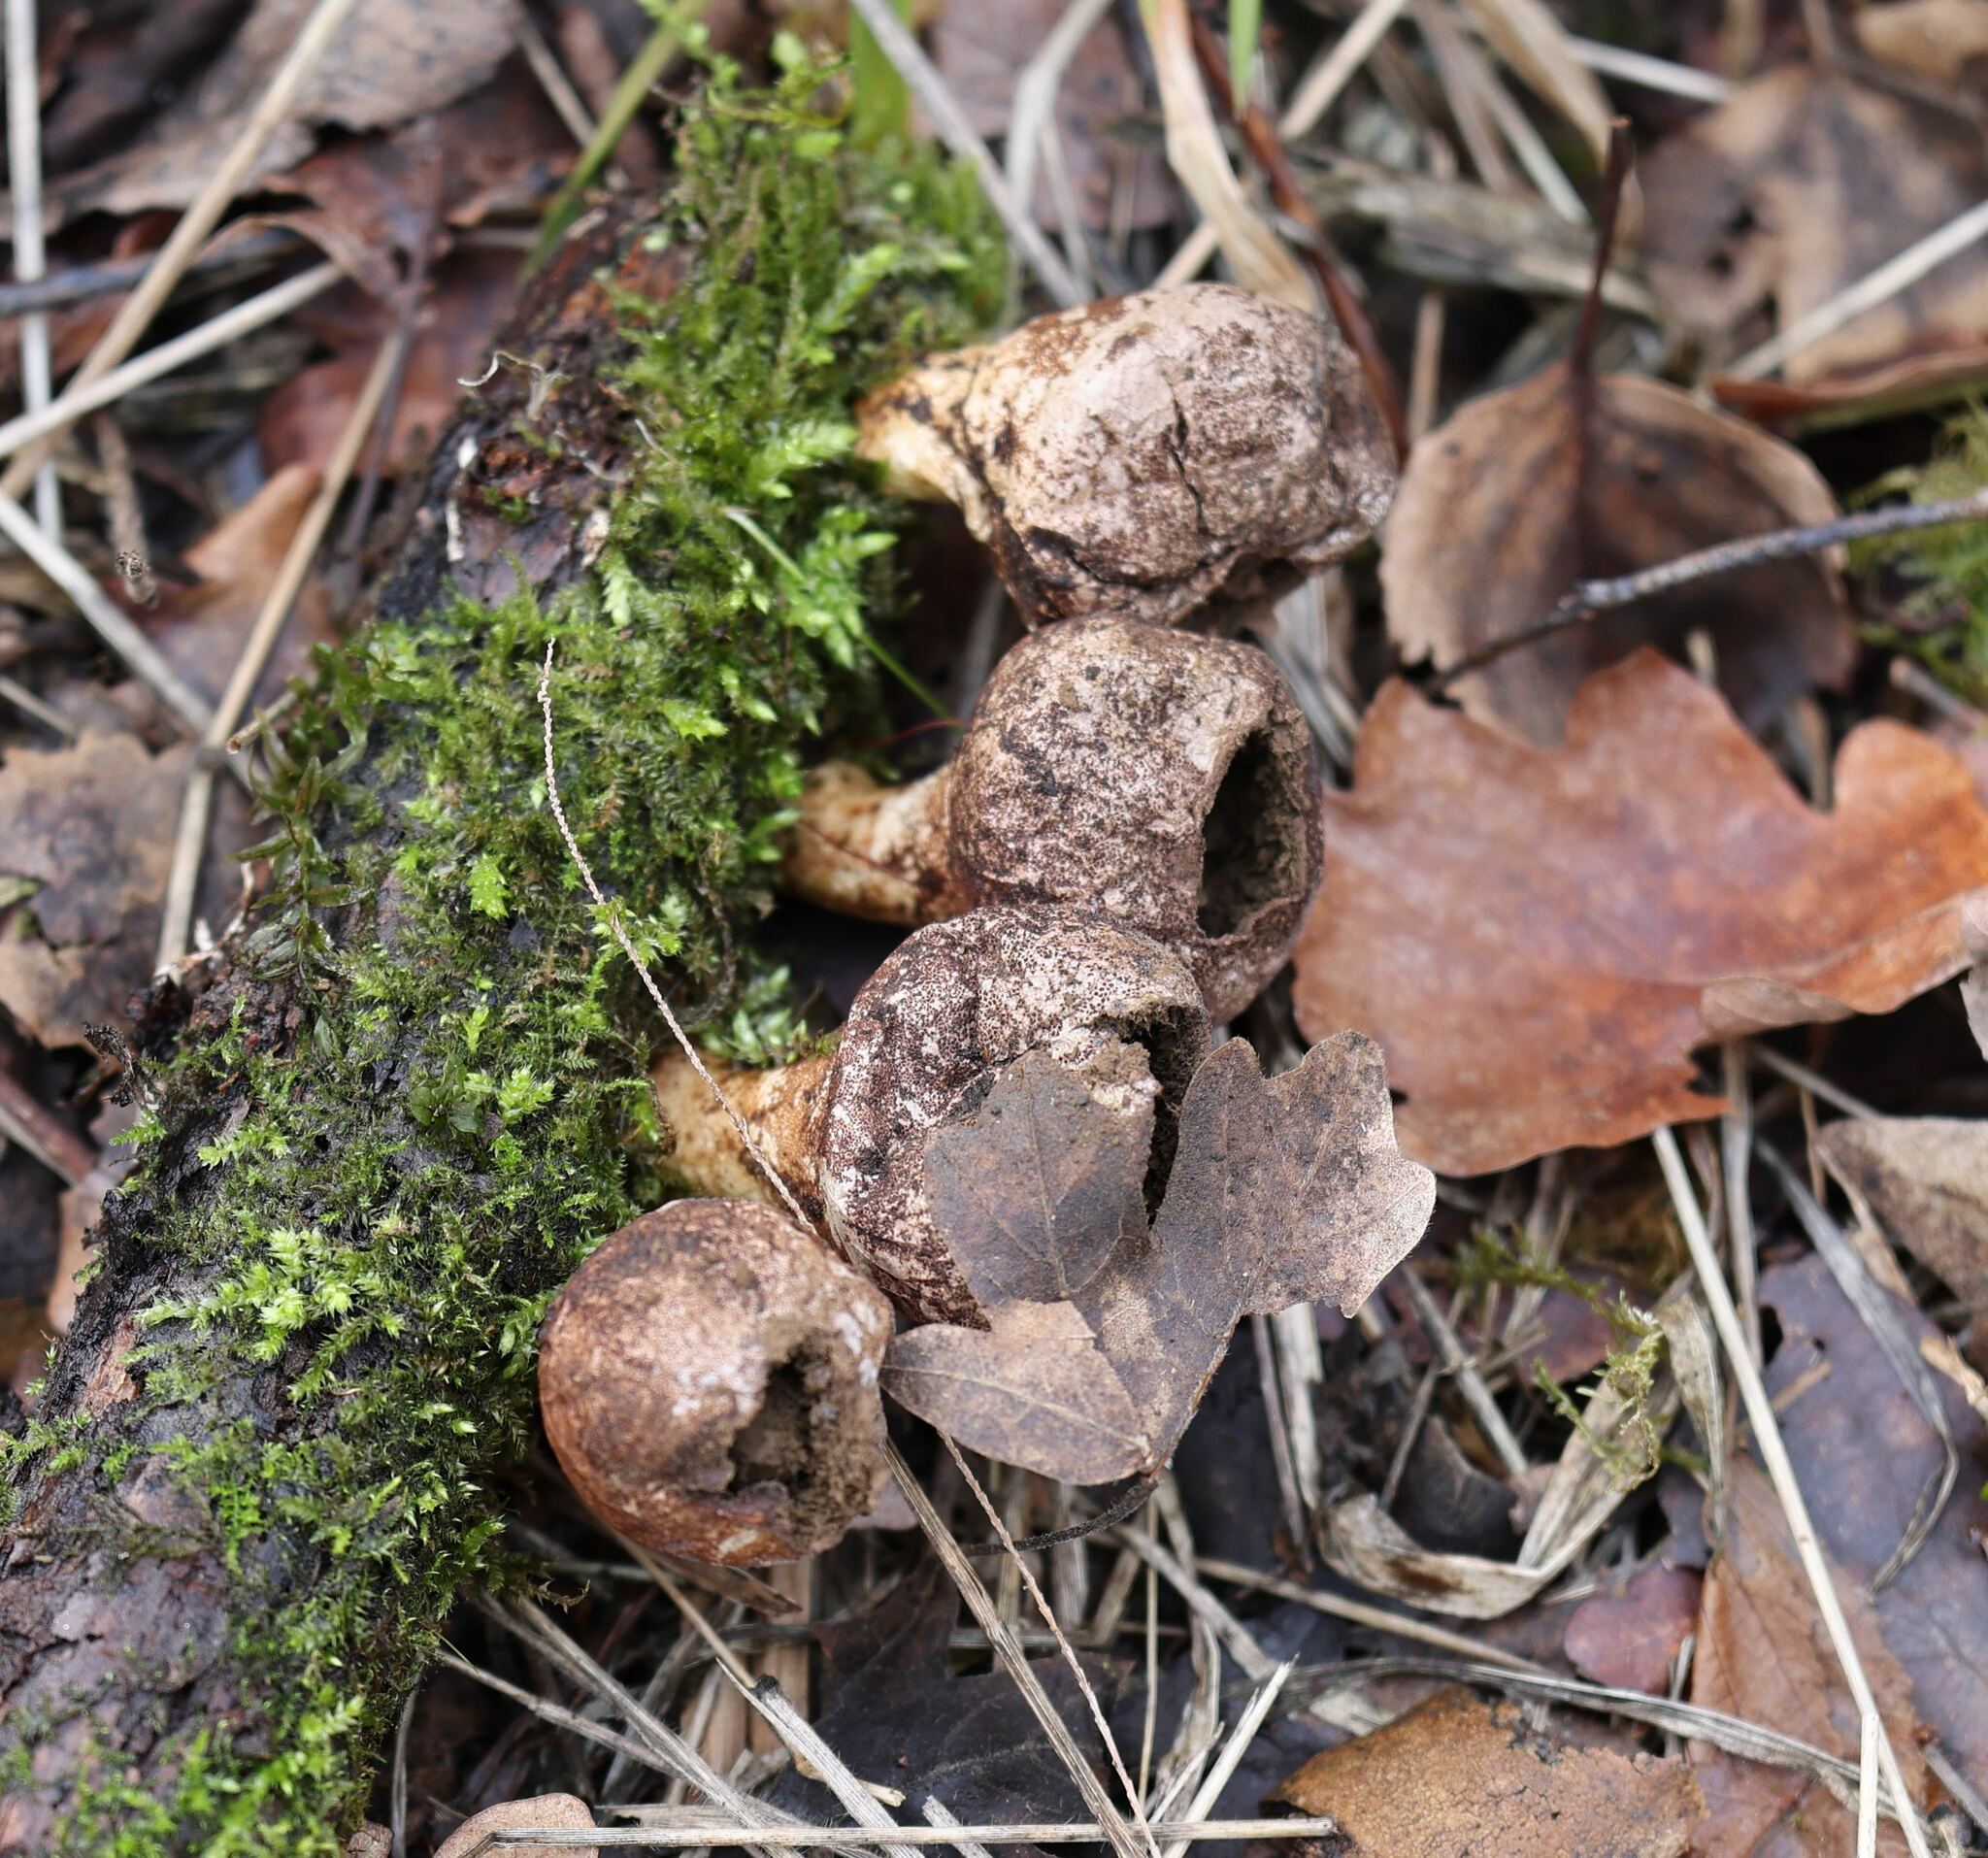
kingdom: Fungi
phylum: Basidiomycota
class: Agaricomycetes
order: Agaricales
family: Lycoperdaceae
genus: Apioperdon
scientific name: Apioperdon pyriforme
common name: Pear-shaped puffball
